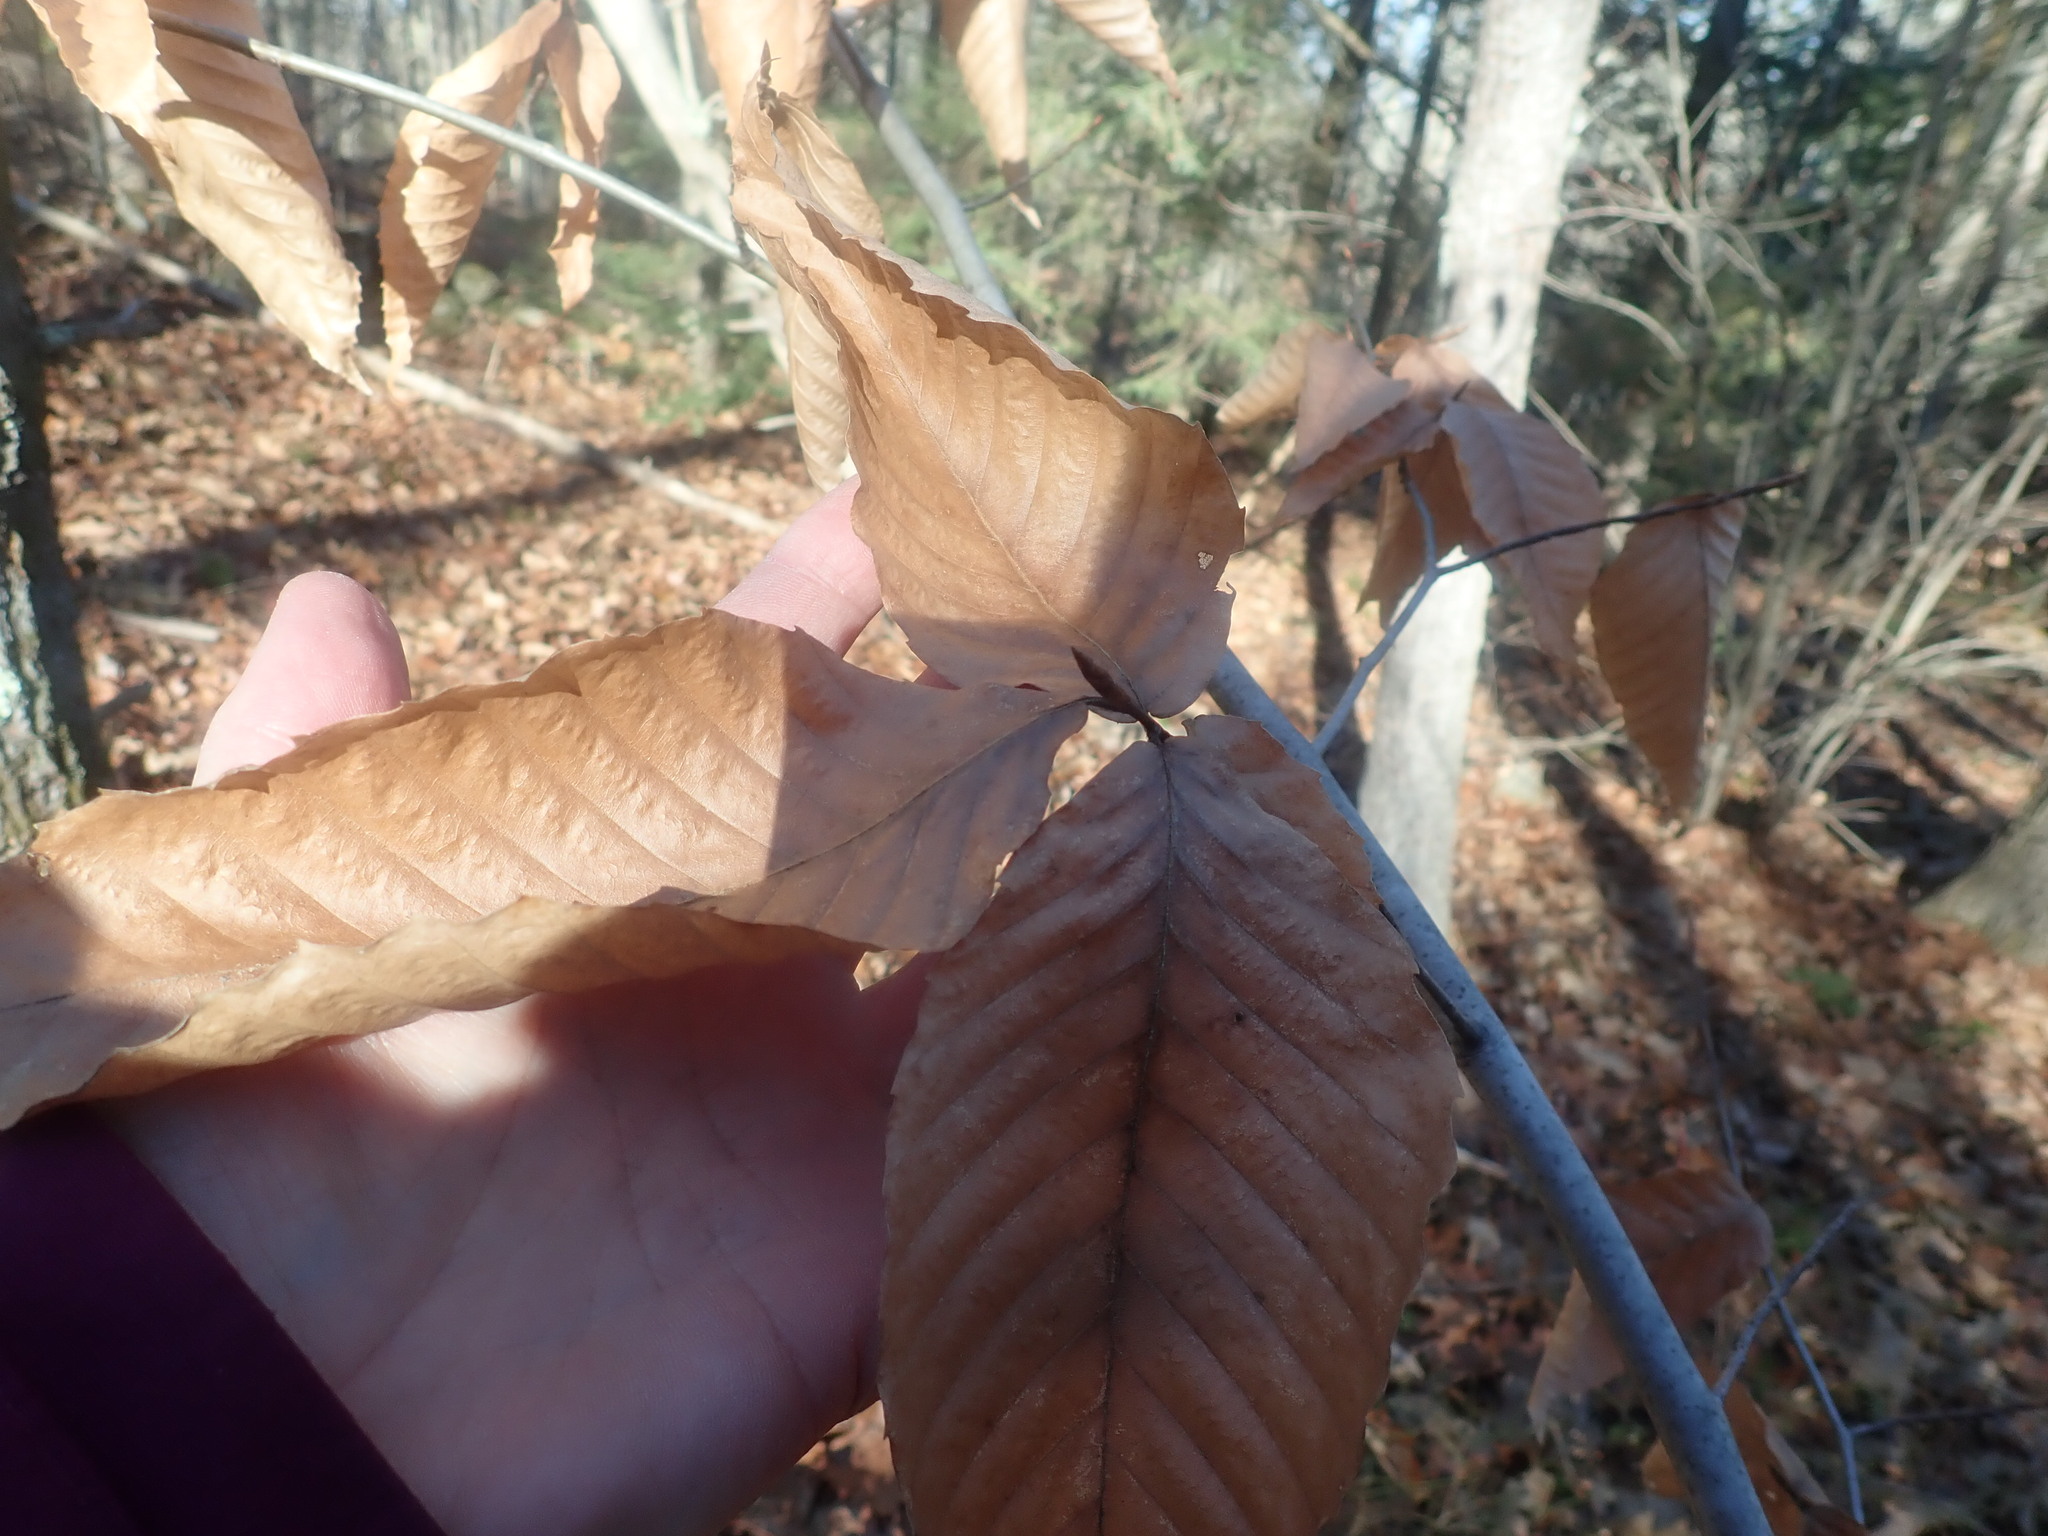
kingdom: Plantae
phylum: Tracheophyta
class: Magnoliopsida
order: Fagales
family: Fagaceae
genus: Fagus
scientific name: Fagus grandifolia
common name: American beech
